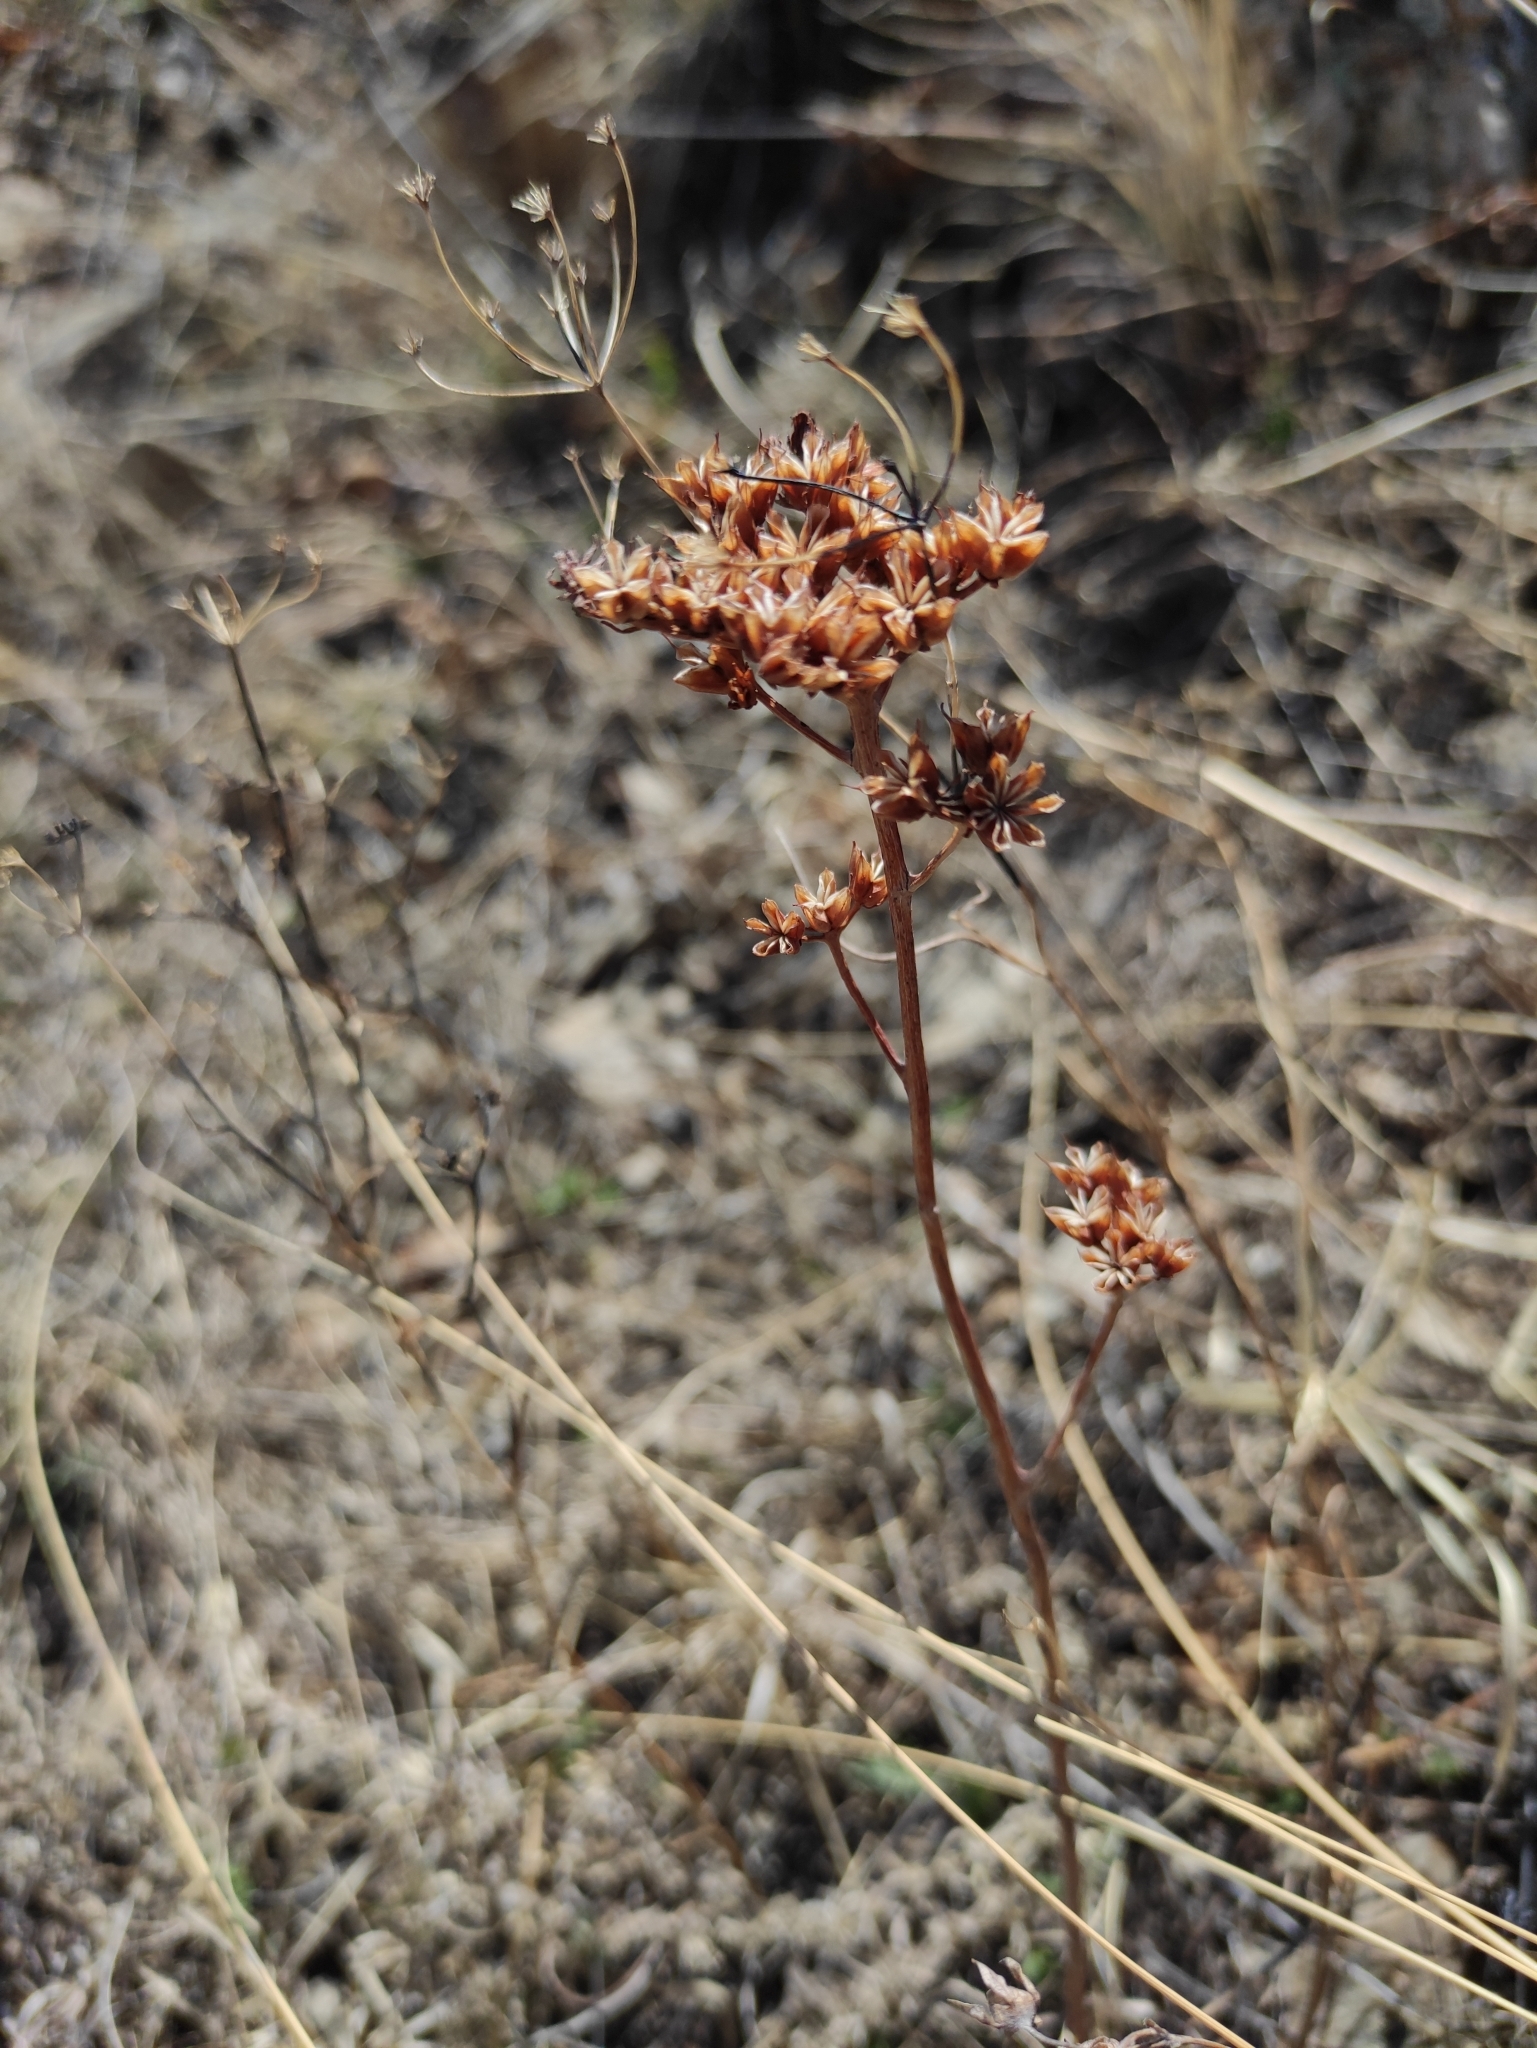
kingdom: Plantae
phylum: Tracheophyta
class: Magnoliopsida
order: Saxifragales
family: Crassulaceae
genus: Phedimus
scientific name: Phedimus aizoon
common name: Orpin aizoon
